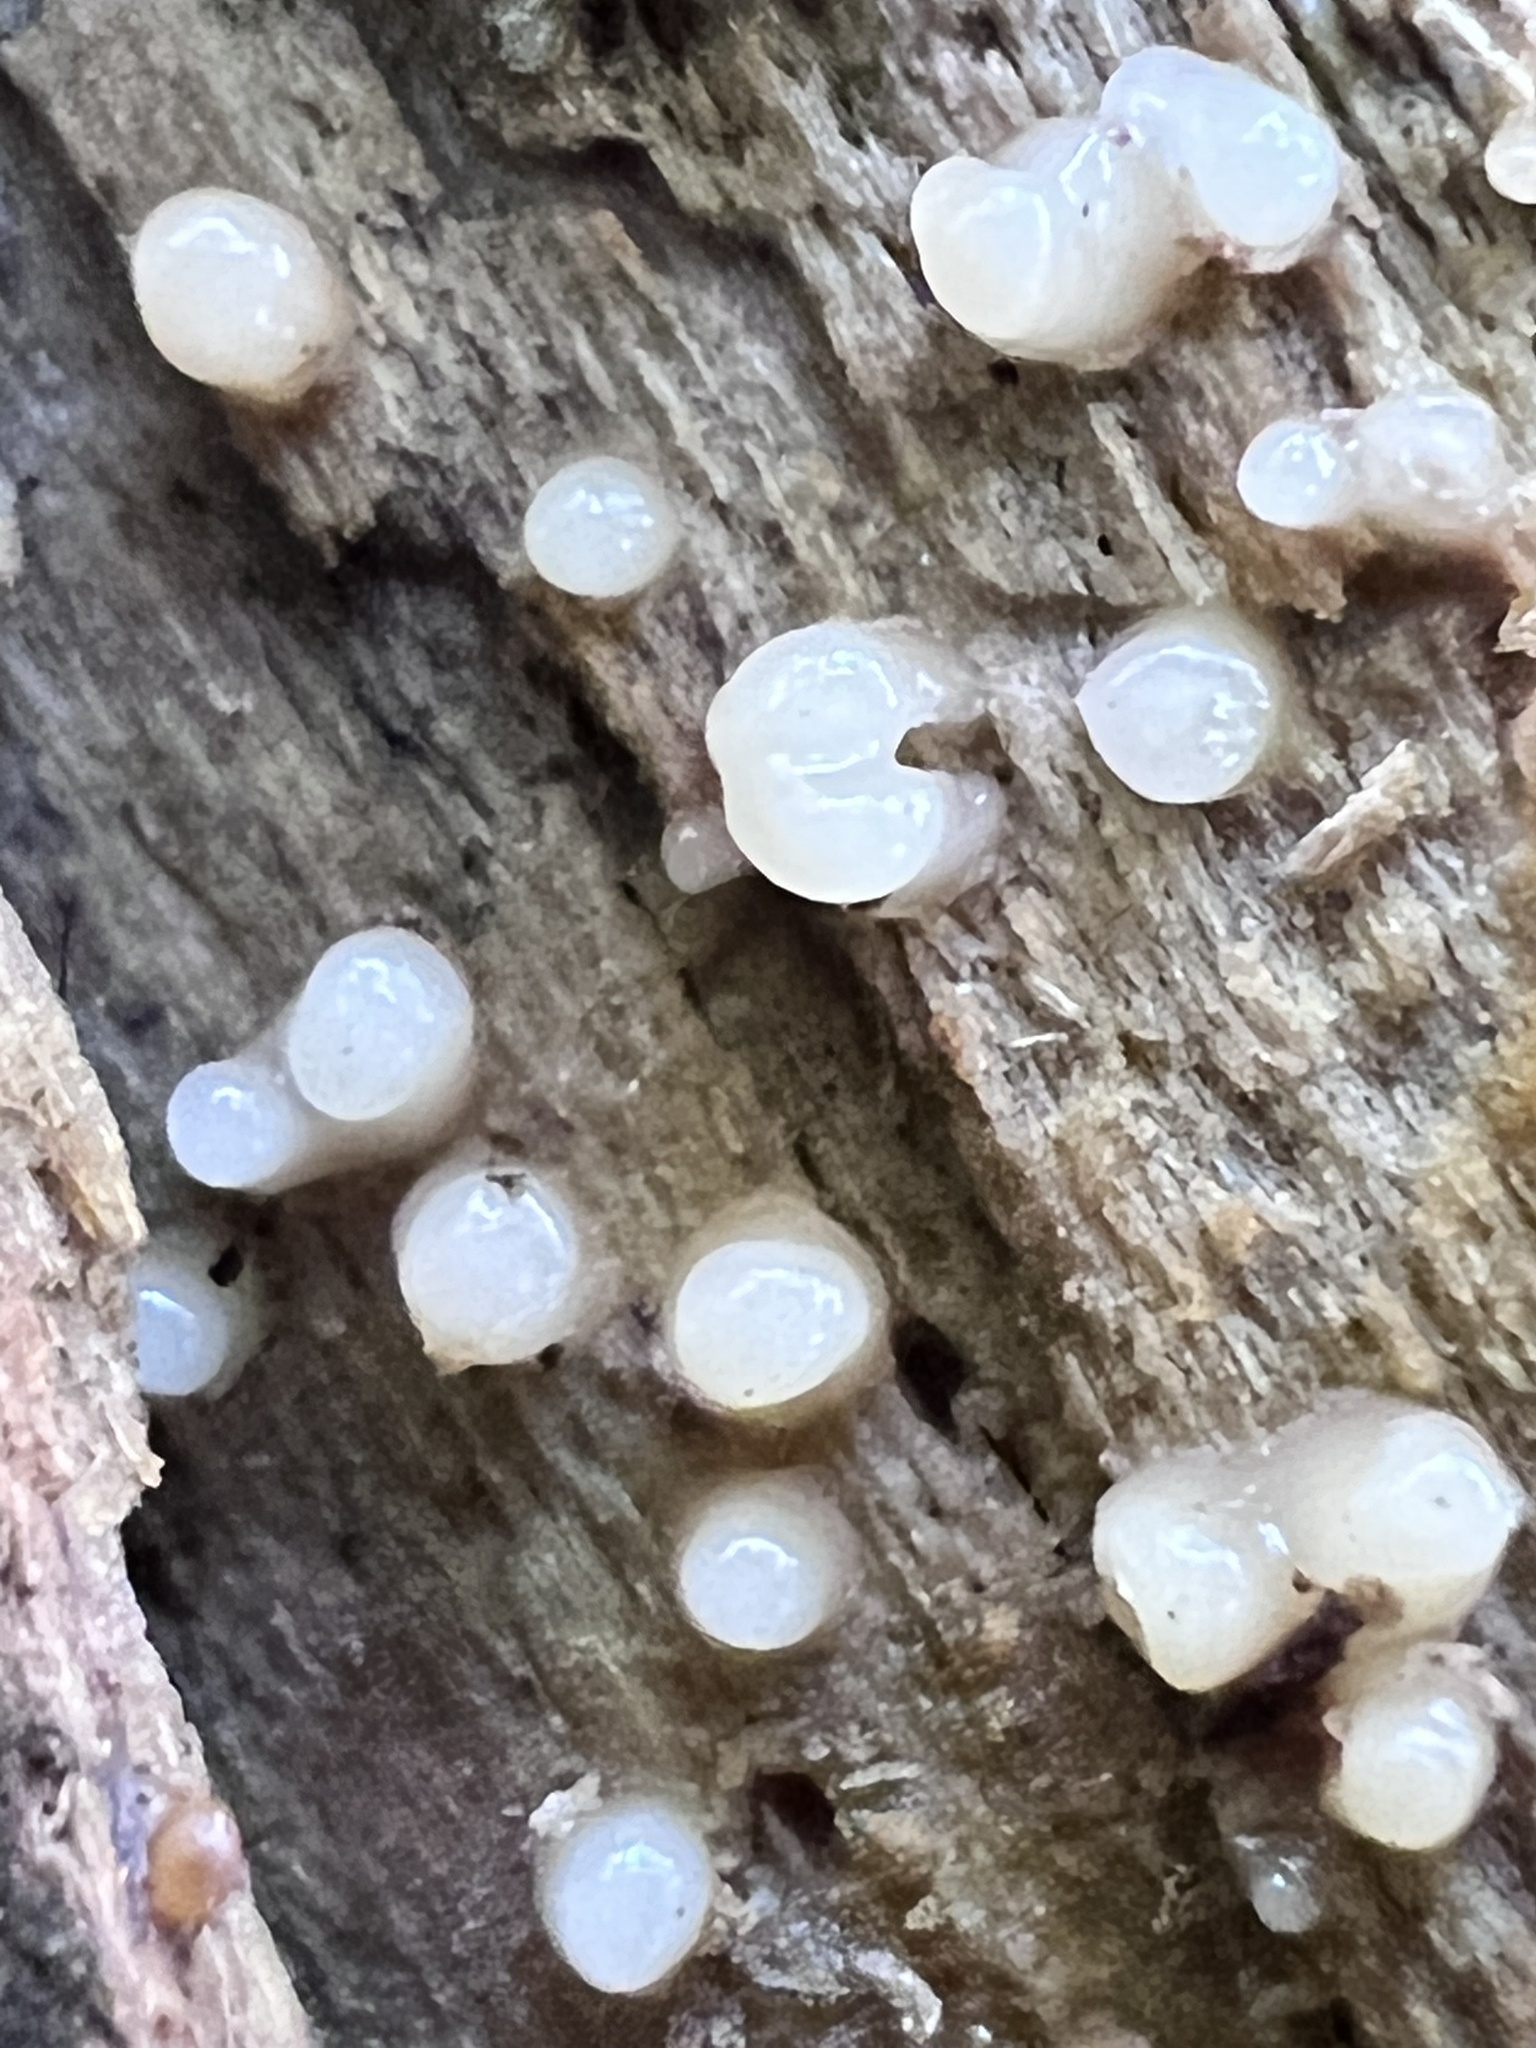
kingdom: Fungi
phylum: Basidiomycota
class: Atractiellomycetes
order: Atractiellales
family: Phleogenaceae
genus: Helicogloea
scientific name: Helicogloea compressa
